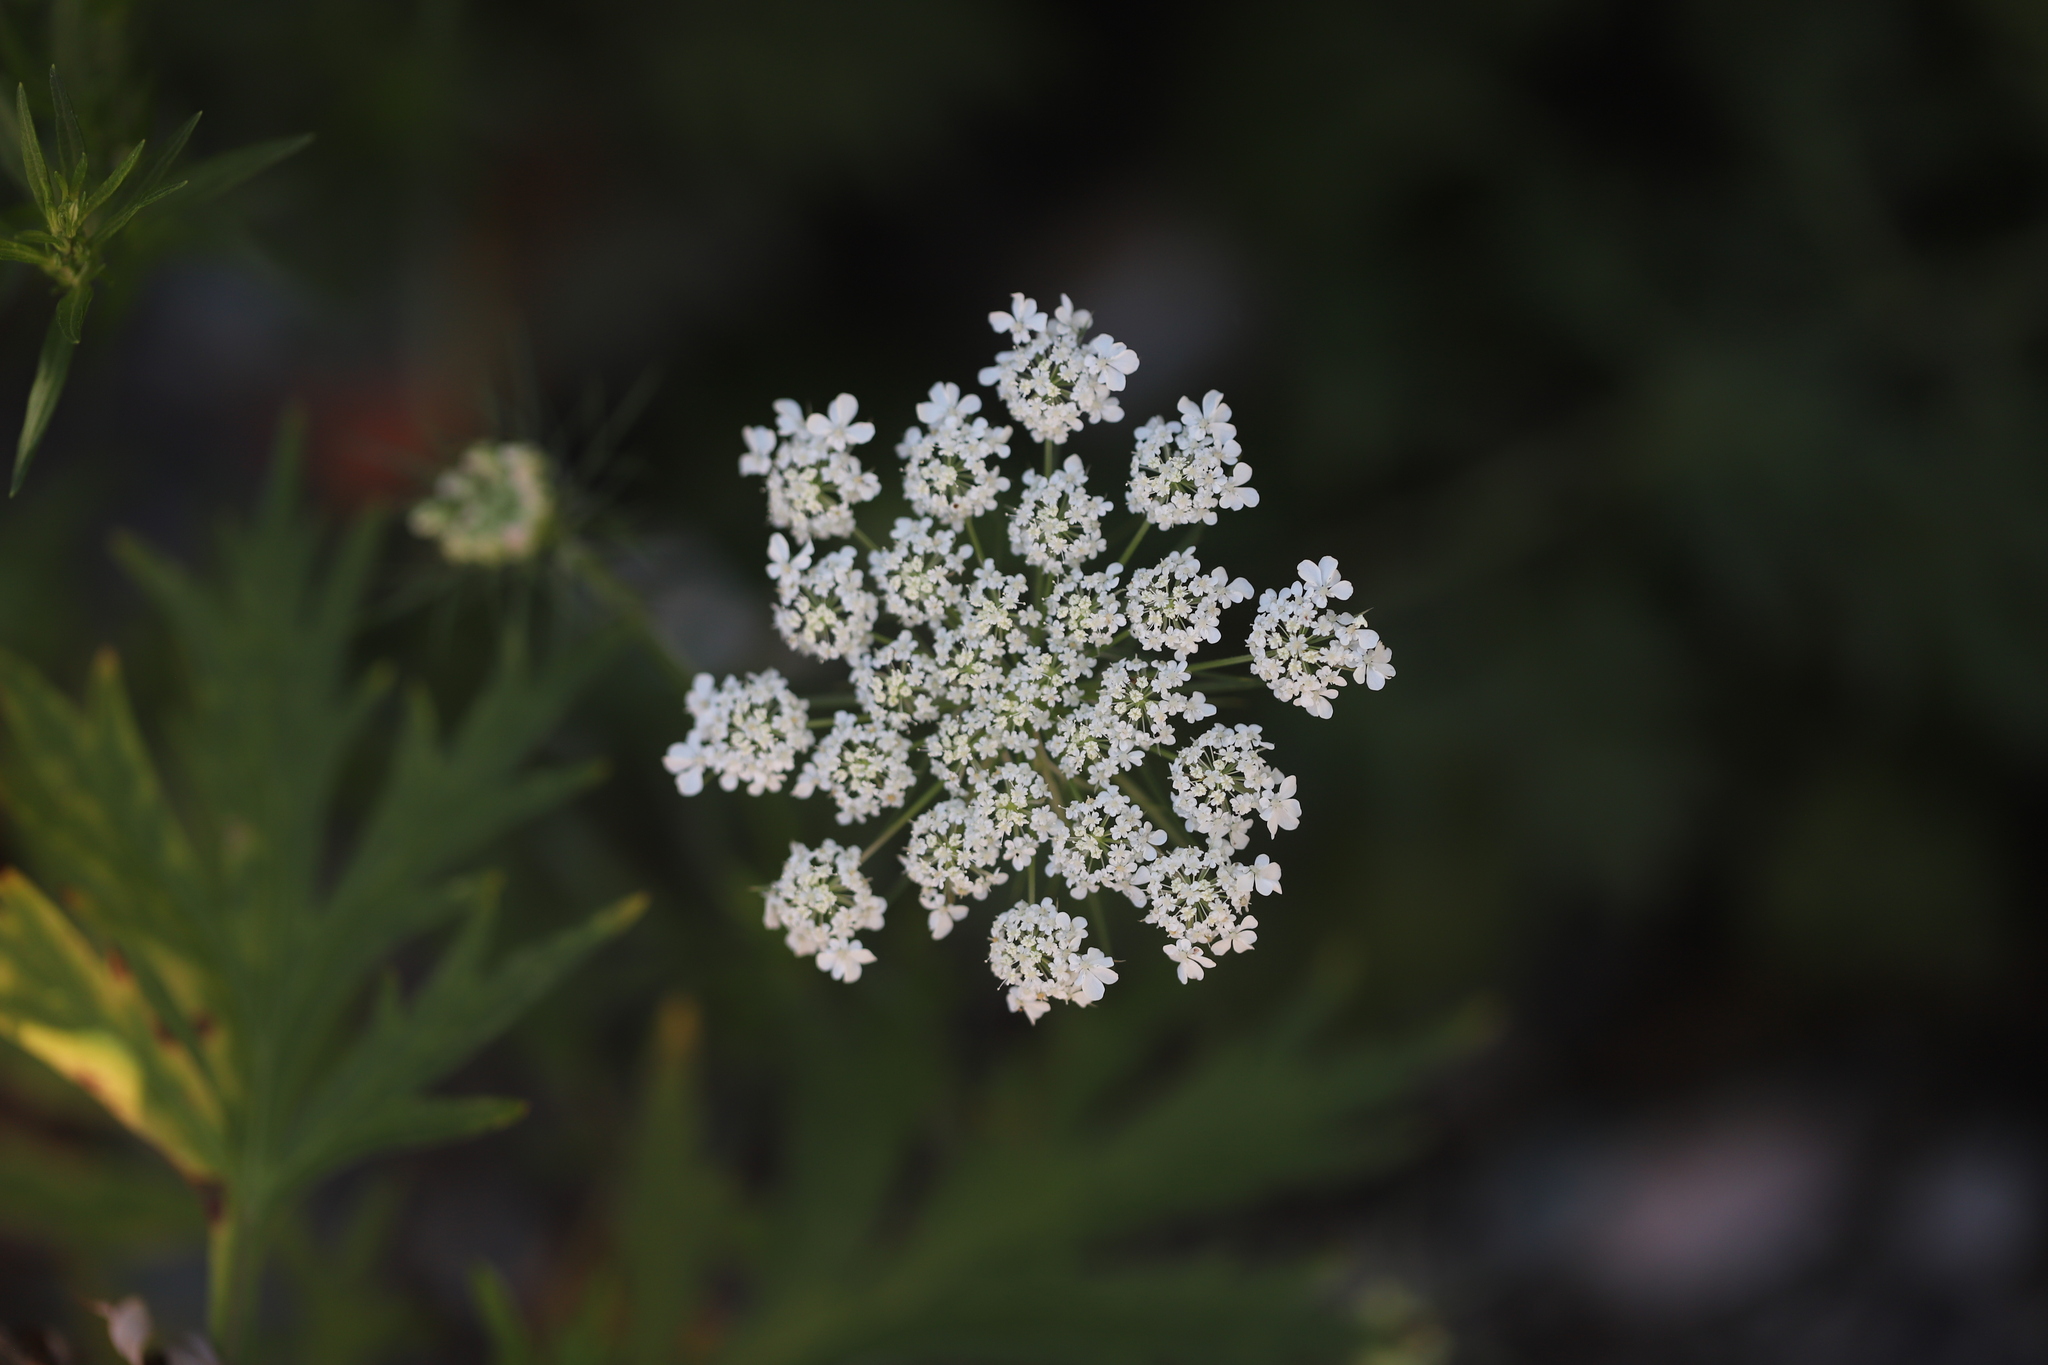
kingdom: Plantae
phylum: Tracheophyta
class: Magnoliopsida
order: Apiales
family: Apiaceae
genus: Daucus
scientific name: Daucus carota
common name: Wild carrot
